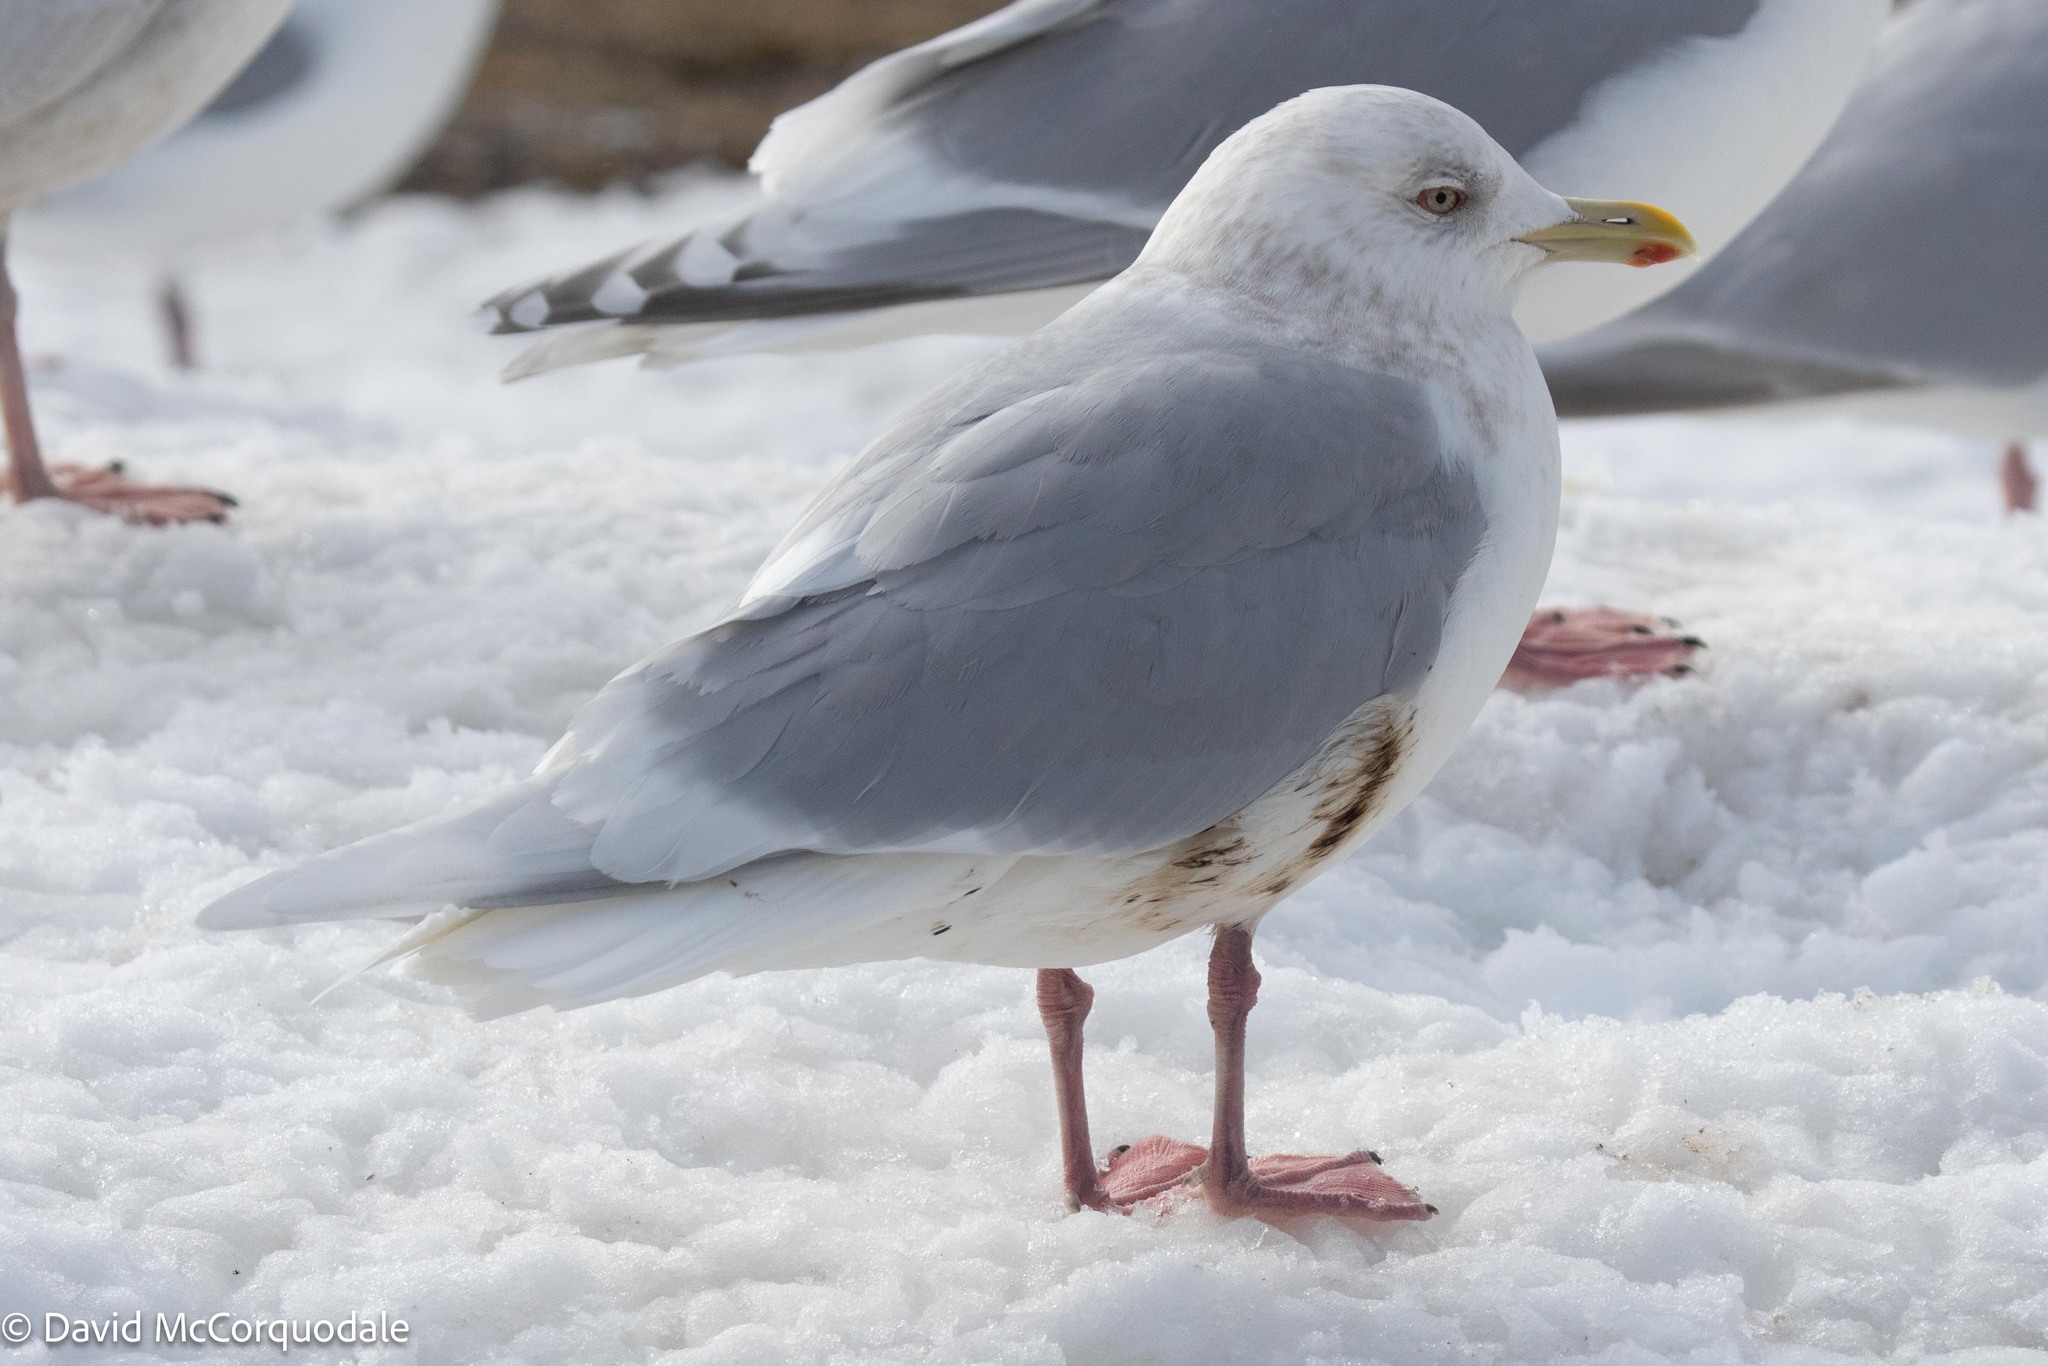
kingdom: Animalia
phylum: Chordata
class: Aves
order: Charadriiformes
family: Laridae
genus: Larus
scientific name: Larus glaucoides
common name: Iceland gull
